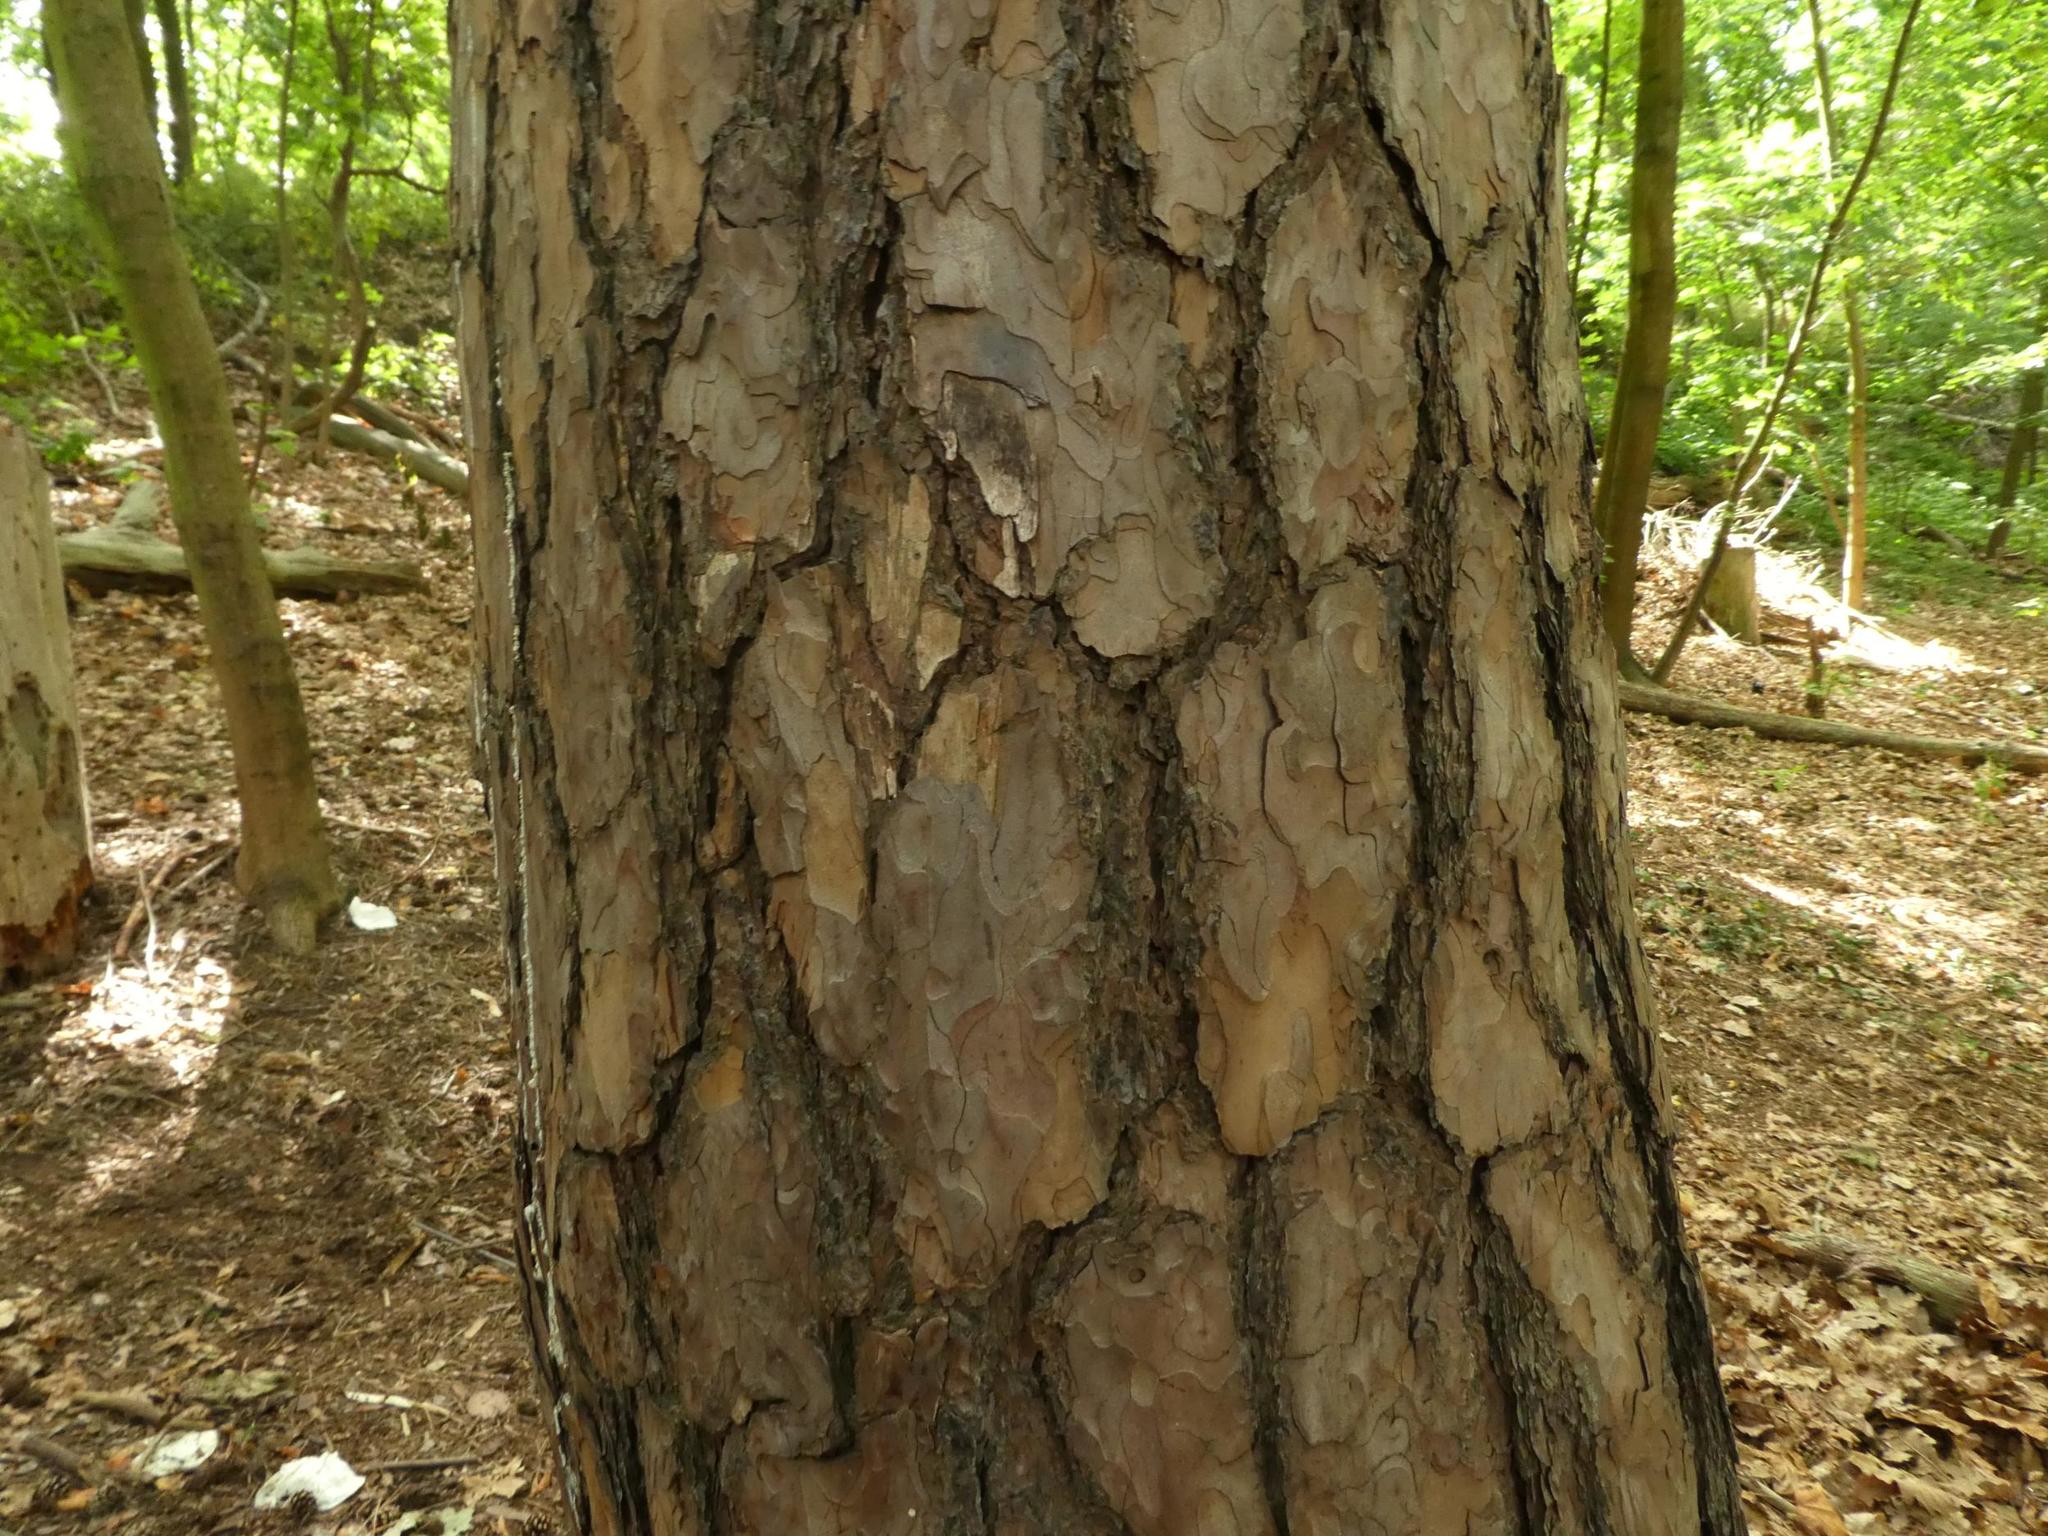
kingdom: Plantae
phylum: Tracheophyta
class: Pinopsida
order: Pinales
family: Pinaceae
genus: Pinus
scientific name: Pinus sylvestris
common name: Scots pine
